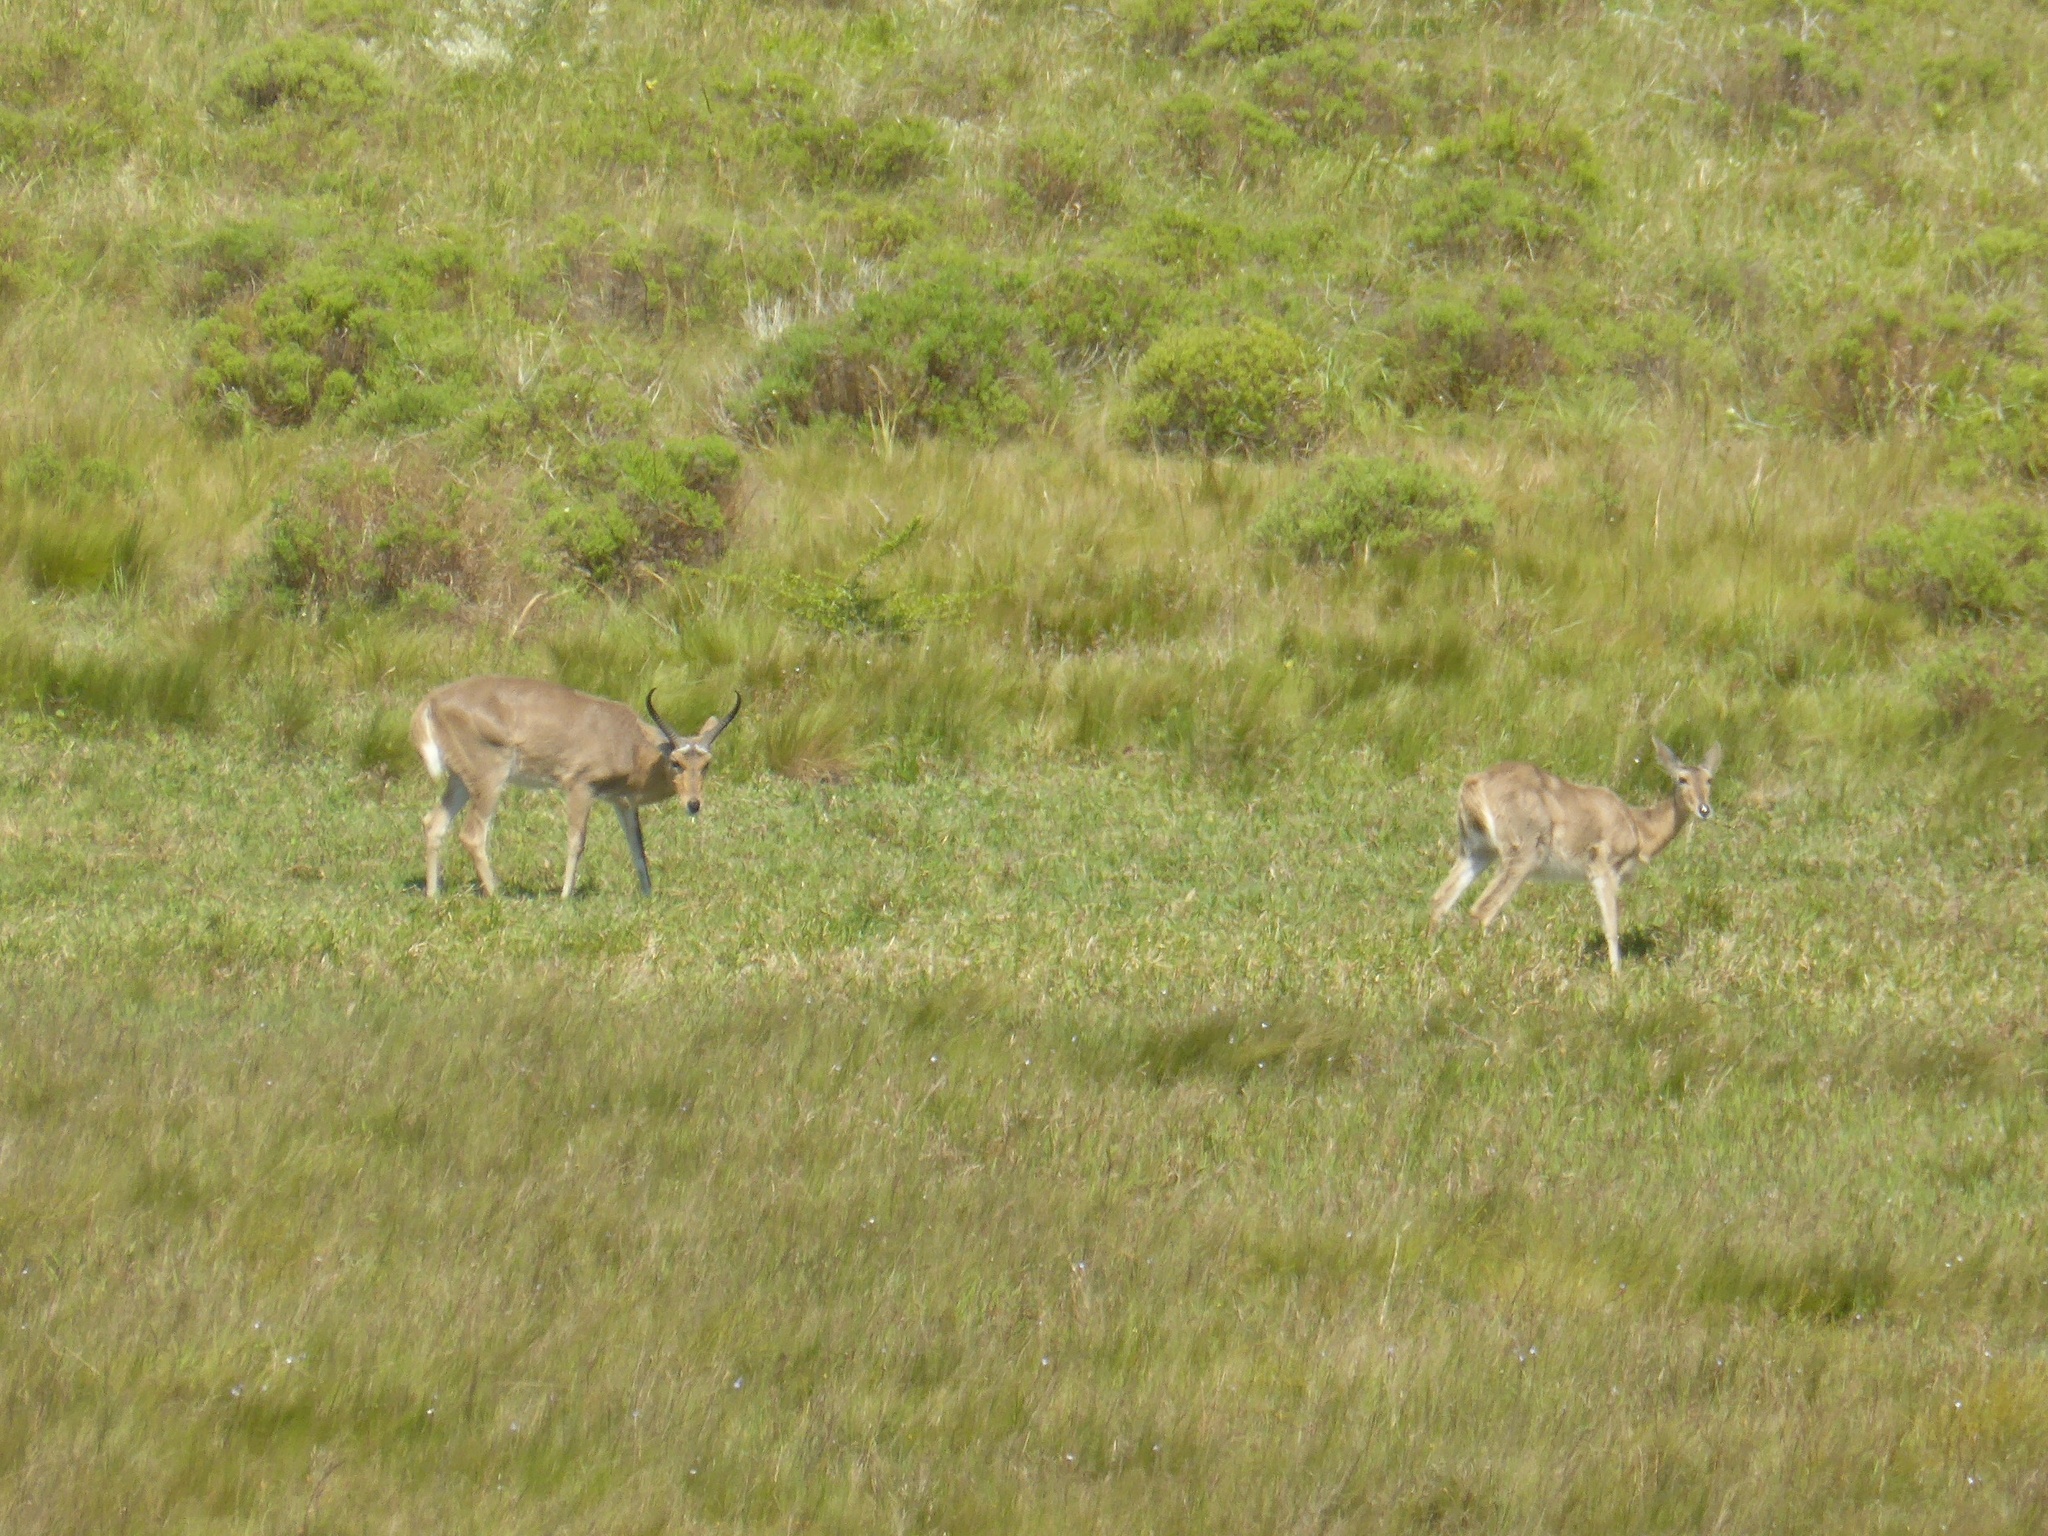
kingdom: Animalia
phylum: Chordata
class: Mammalia
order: Artiodactyla
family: Bovidae
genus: Redunca
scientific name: Redunca arundinum
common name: Southern reedbuck
